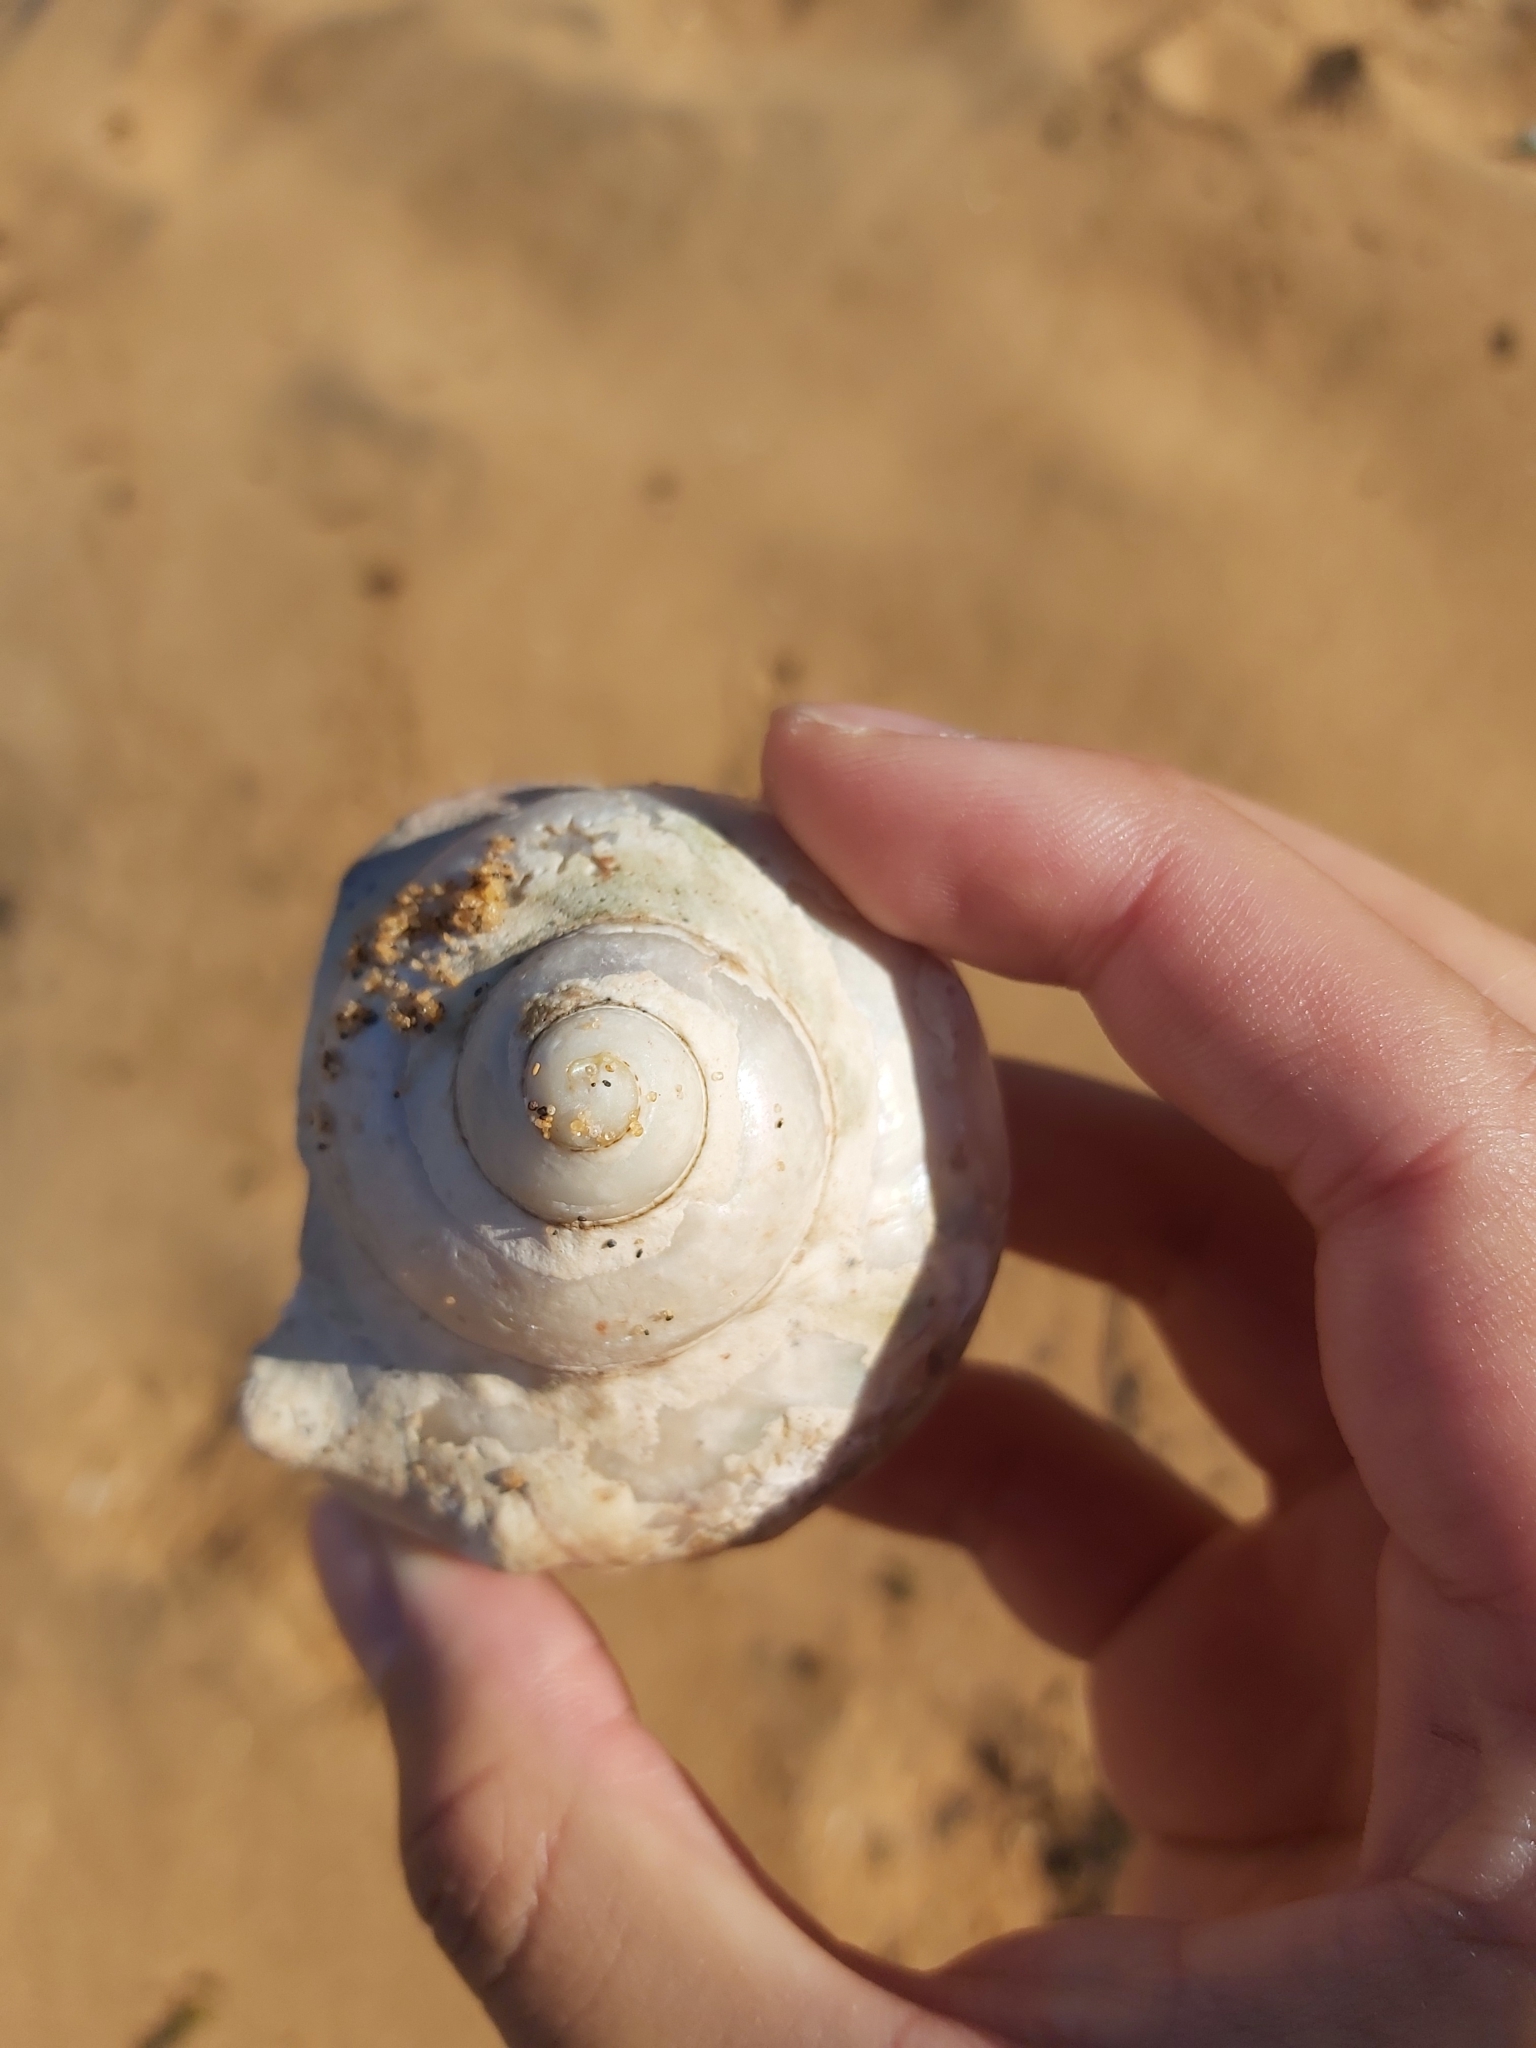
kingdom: Animalia
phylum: Mollusca
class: Gastropoda
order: Trochida
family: Turbinidae
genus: Turbo
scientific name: Turbo militaris
